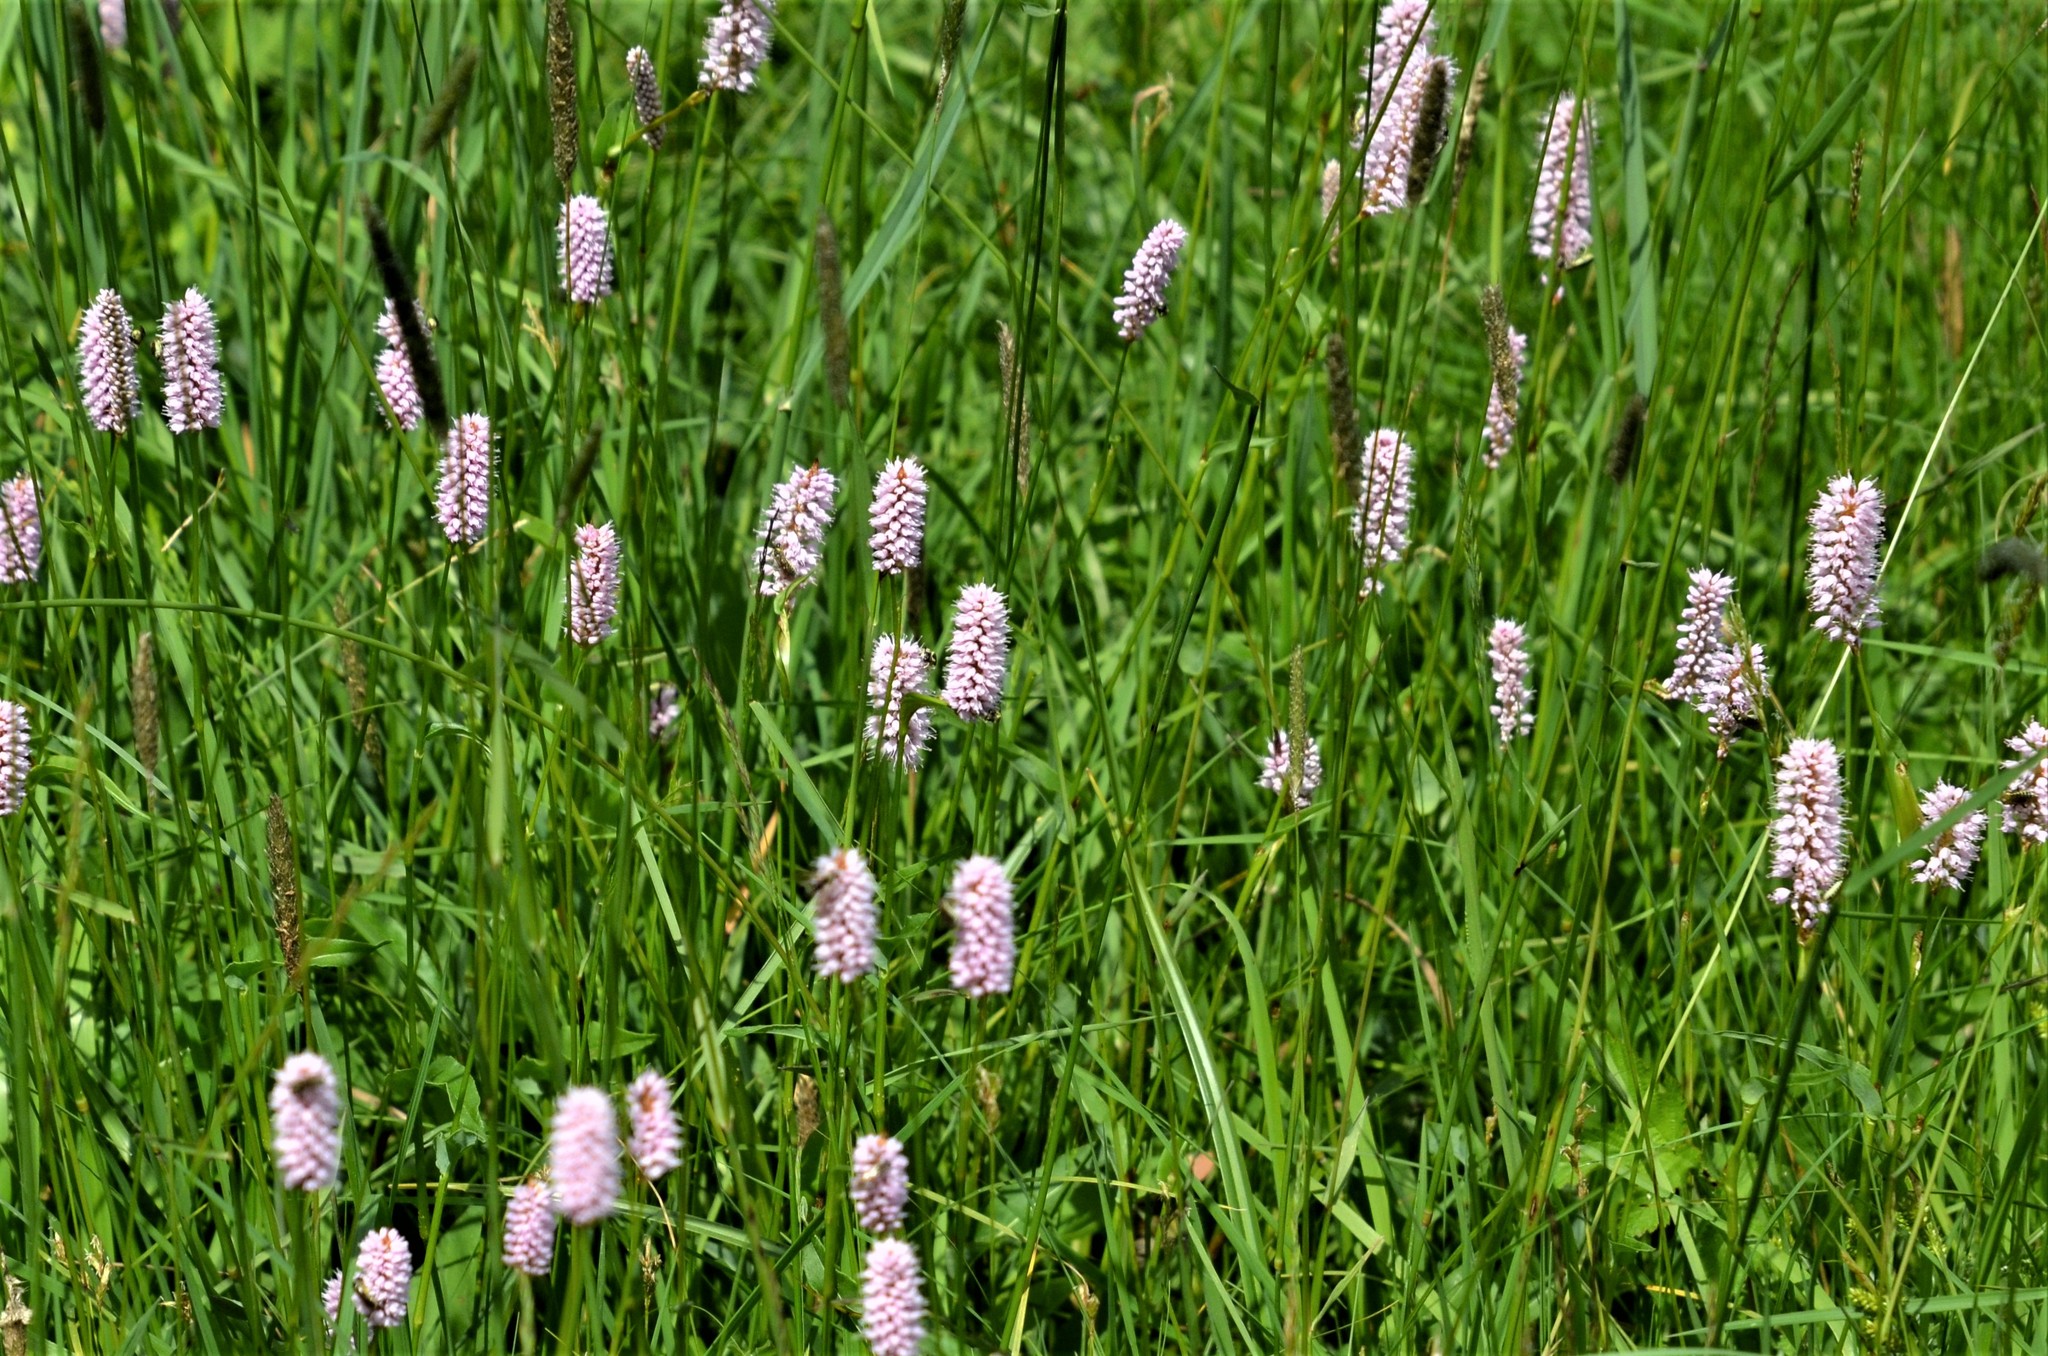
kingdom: Plantae
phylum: Tracheophyta
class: Magnoliopsida
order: Caryophyllales
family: Polygonaceae
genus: Bistorta
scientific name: Bistorta officinalis
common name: Common bistort
